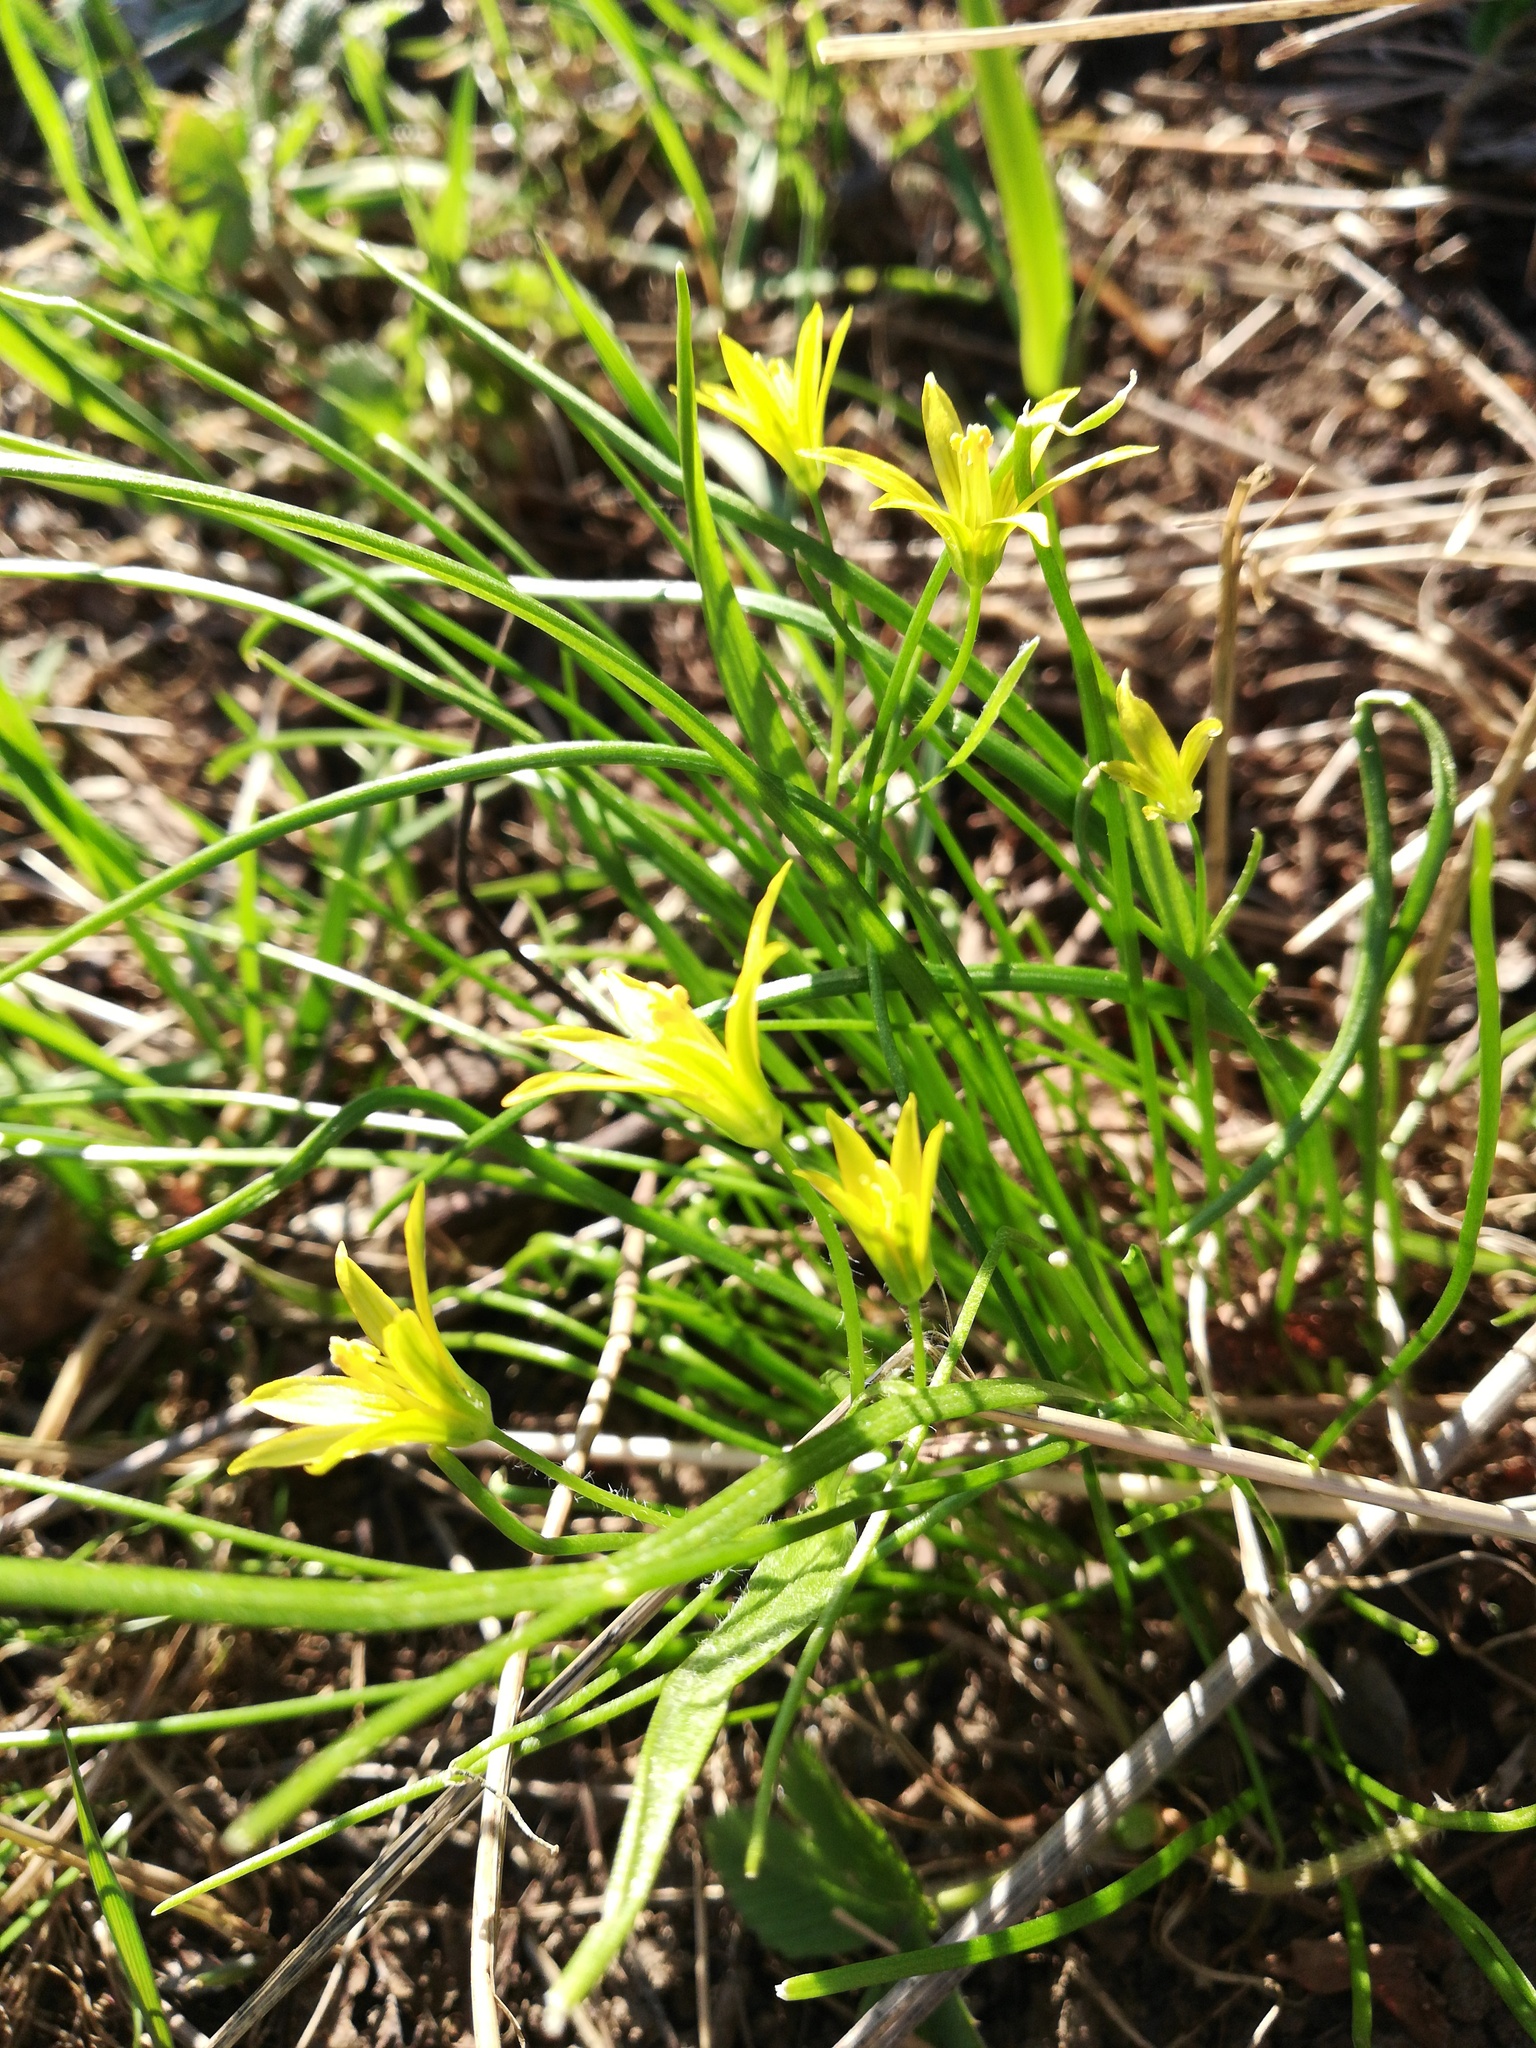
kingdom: Plantae
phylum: Tracheophyta
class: Liliopsida
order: Liliales
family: Liliaceae
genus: Gagea
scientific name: Gagea minima
